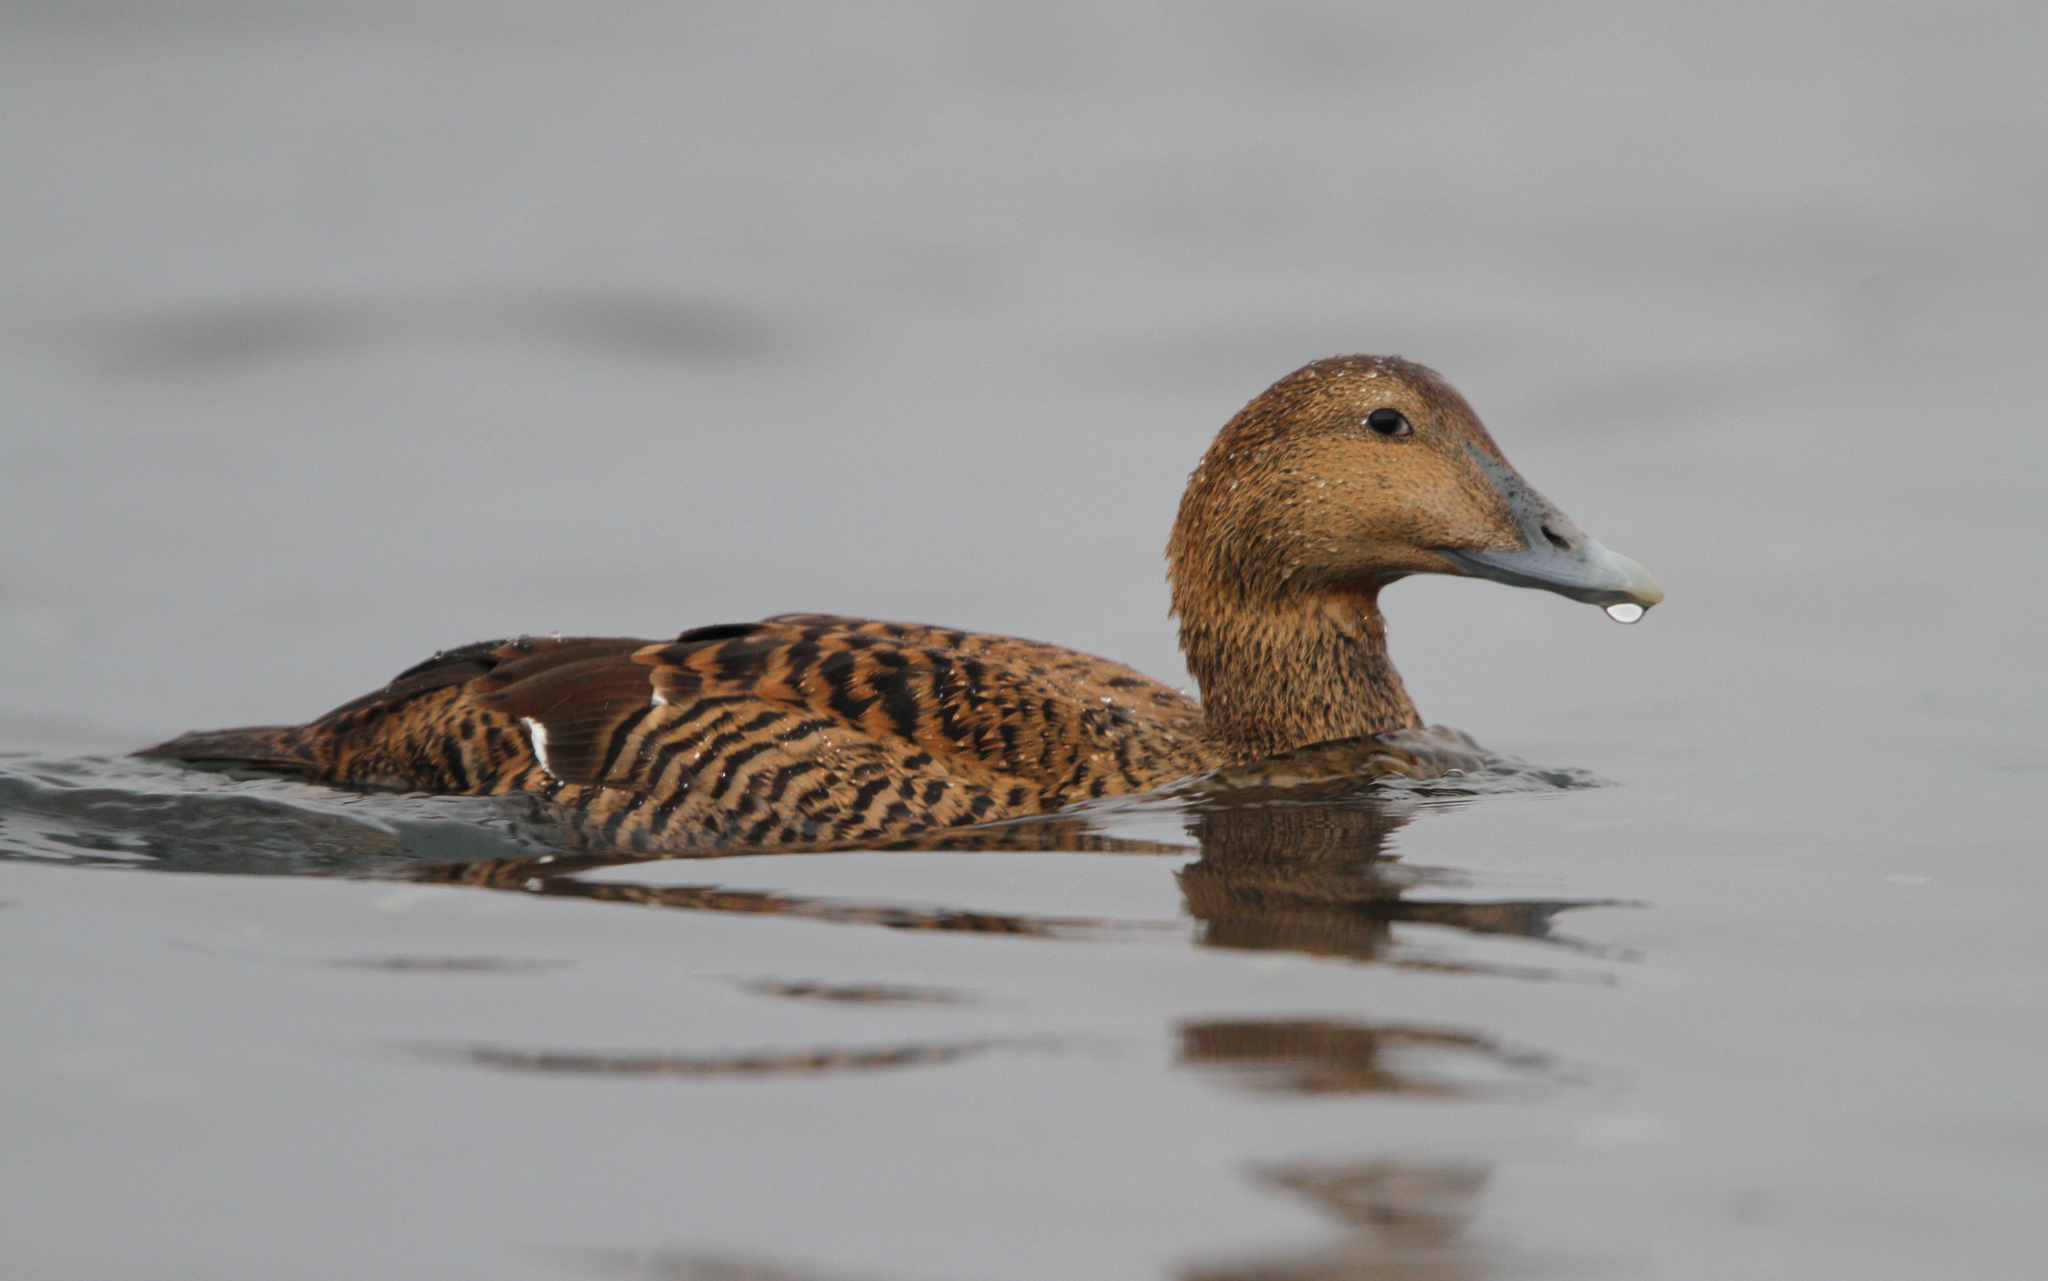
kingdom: Animalia
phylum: Chordata
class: Aves
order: Anseriformes
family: Anatidae
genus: Somateria
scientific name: Somateria mollissima
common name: Common eider
